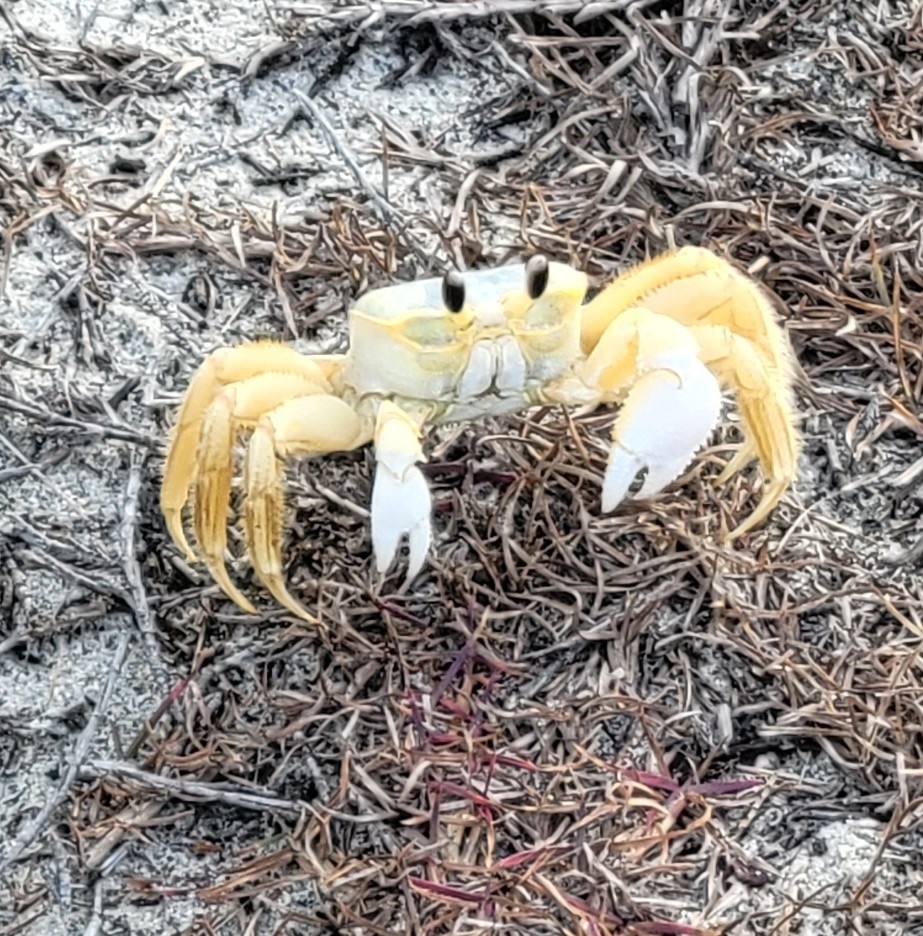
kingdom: Animalia
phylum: Arthropoda
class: Malacostraca
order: Decapoda
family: Ocypodidae
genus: Ocypode
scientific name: Ocypode quadrata
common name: Ghost crab
